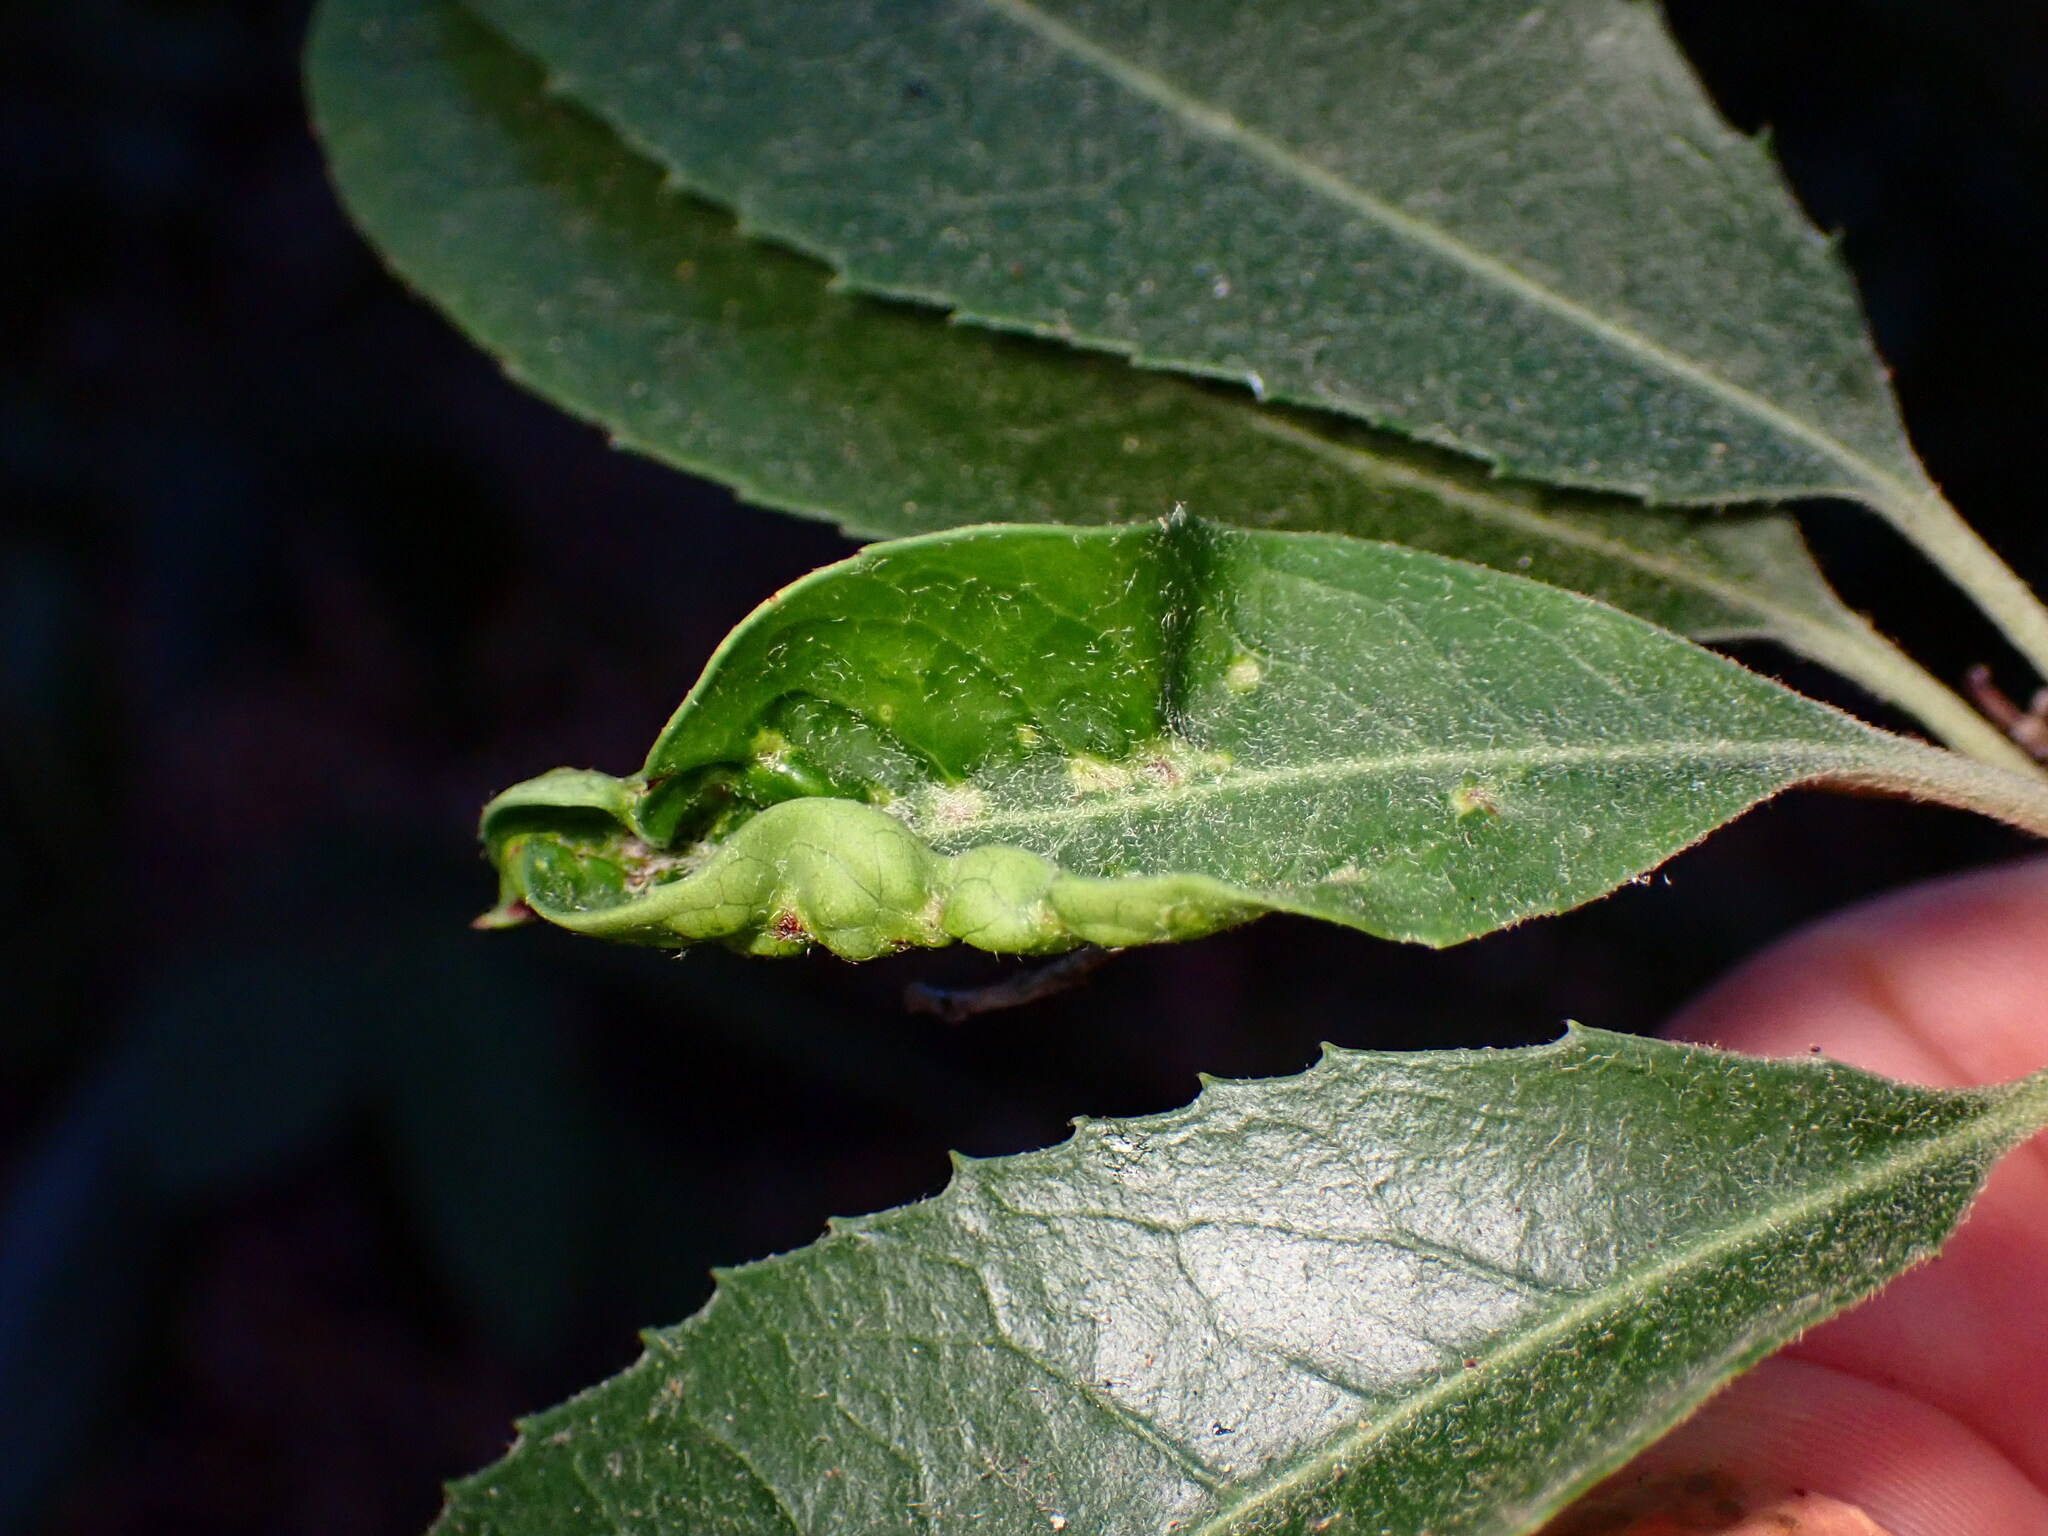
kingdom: Animalia
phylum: Arthropoda
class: Insecta
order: Thysanoptera
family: Phlaeothripidae
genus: Liothrips
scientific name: Liothrips ilex
